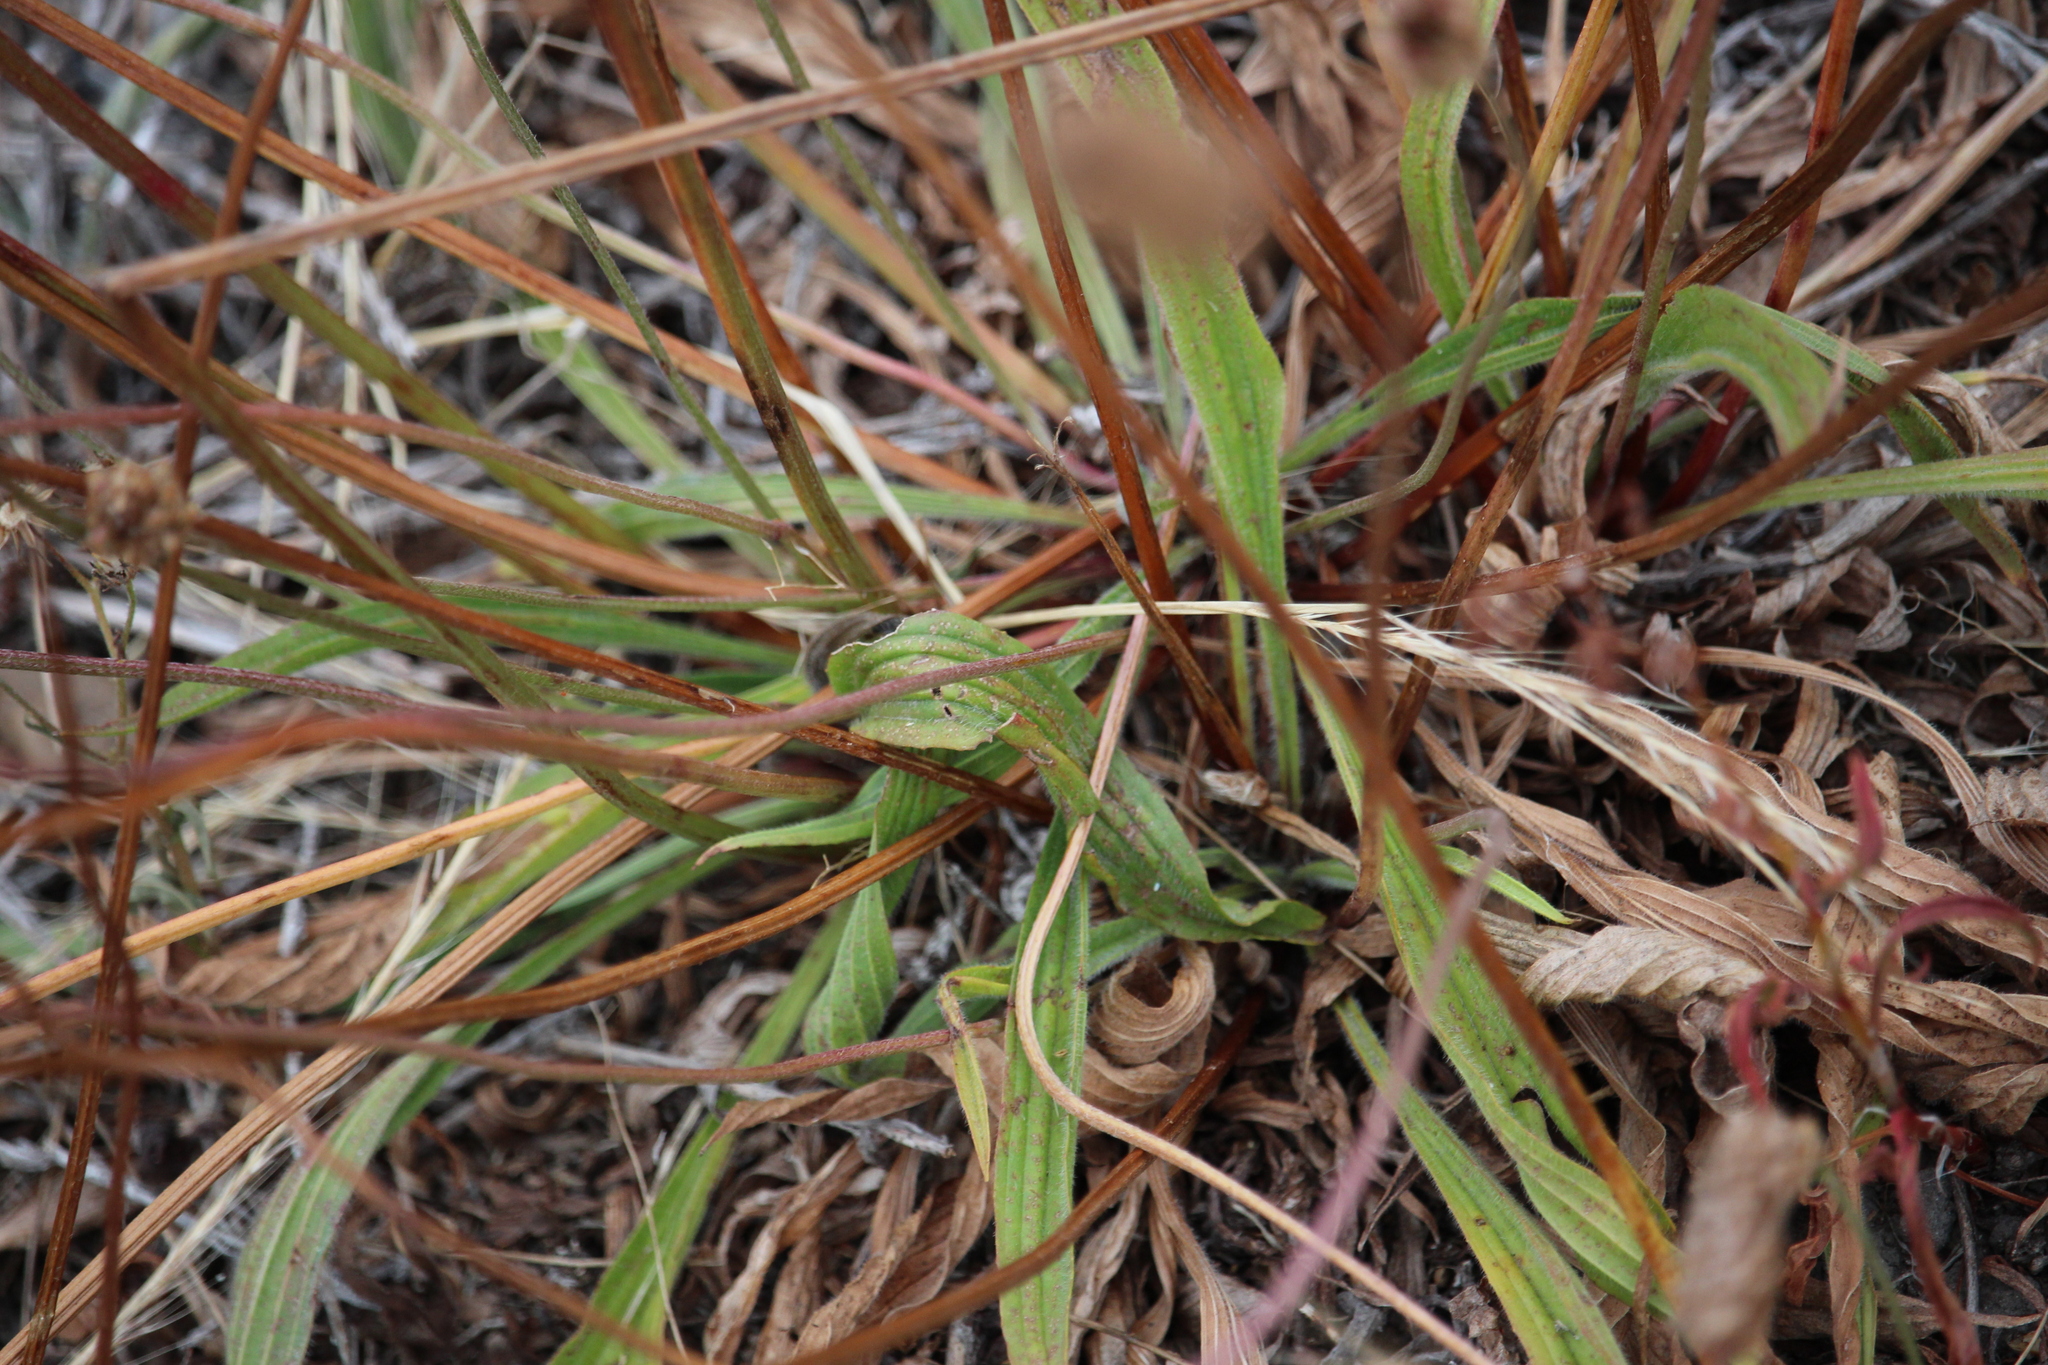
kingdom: Plantae
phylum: Tracheophyta
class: Magnoliopsida
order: Lamiales
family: Plantaginaceae
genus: Plantago
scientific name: Plantago lanceolata
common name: Ribwort plantain
